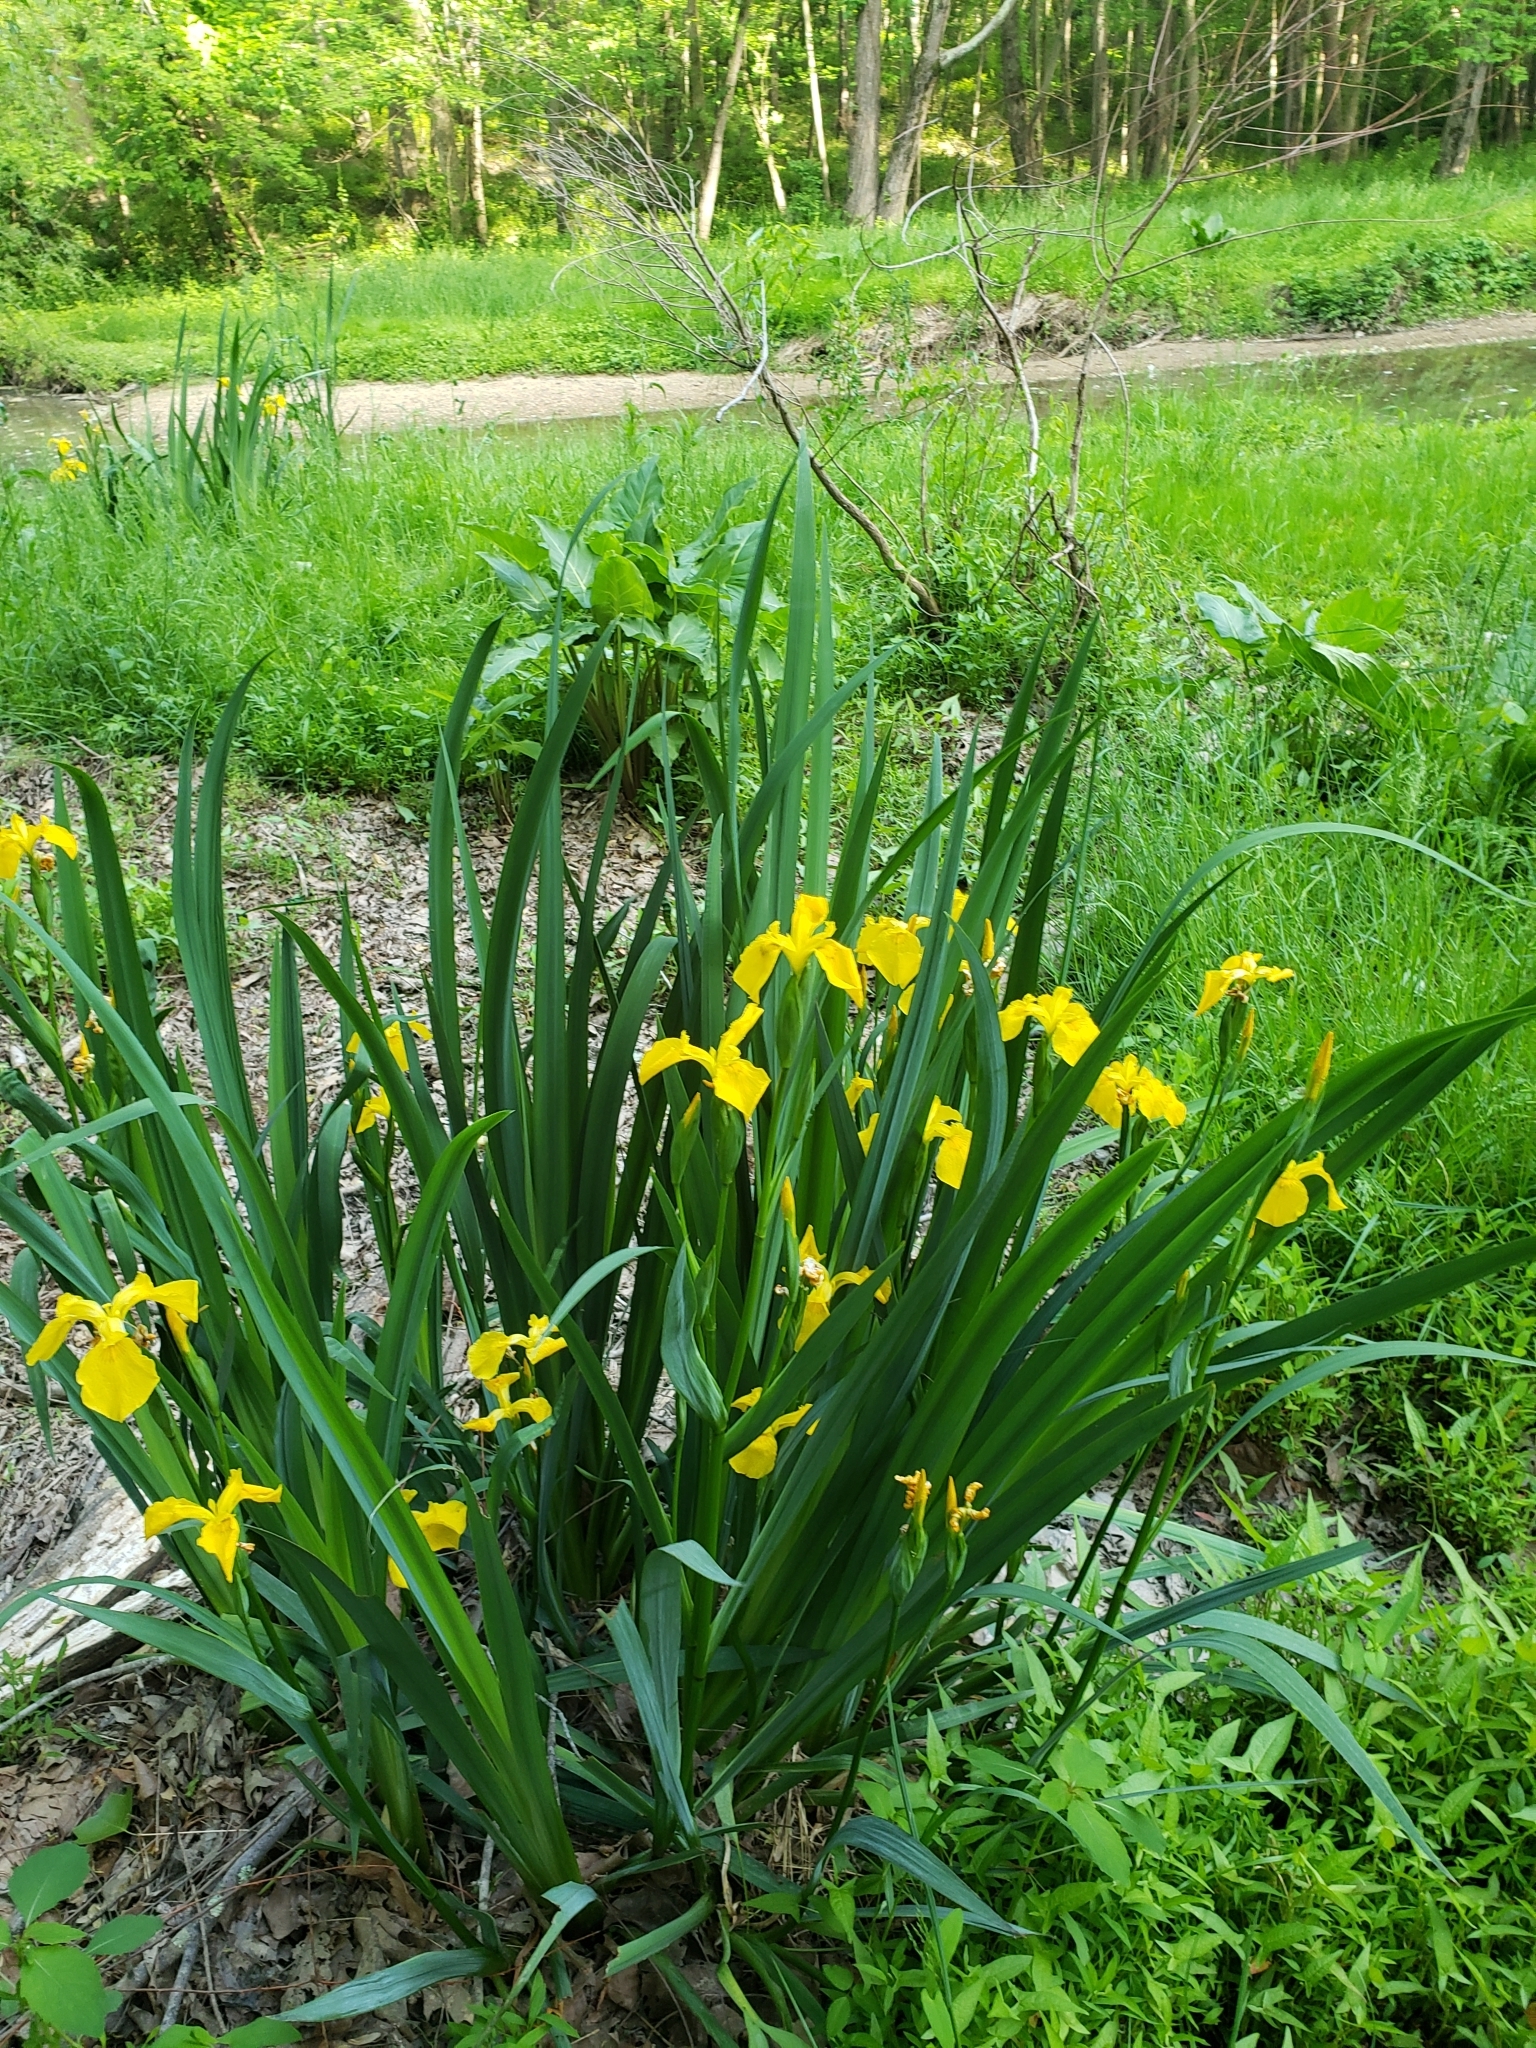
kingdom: Plantae
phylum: Tracheophyta
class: Liliopsida
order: Asparagales
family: Iridaceae
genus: Iris
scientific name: Iris pseudacorus
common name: Yellow flag
